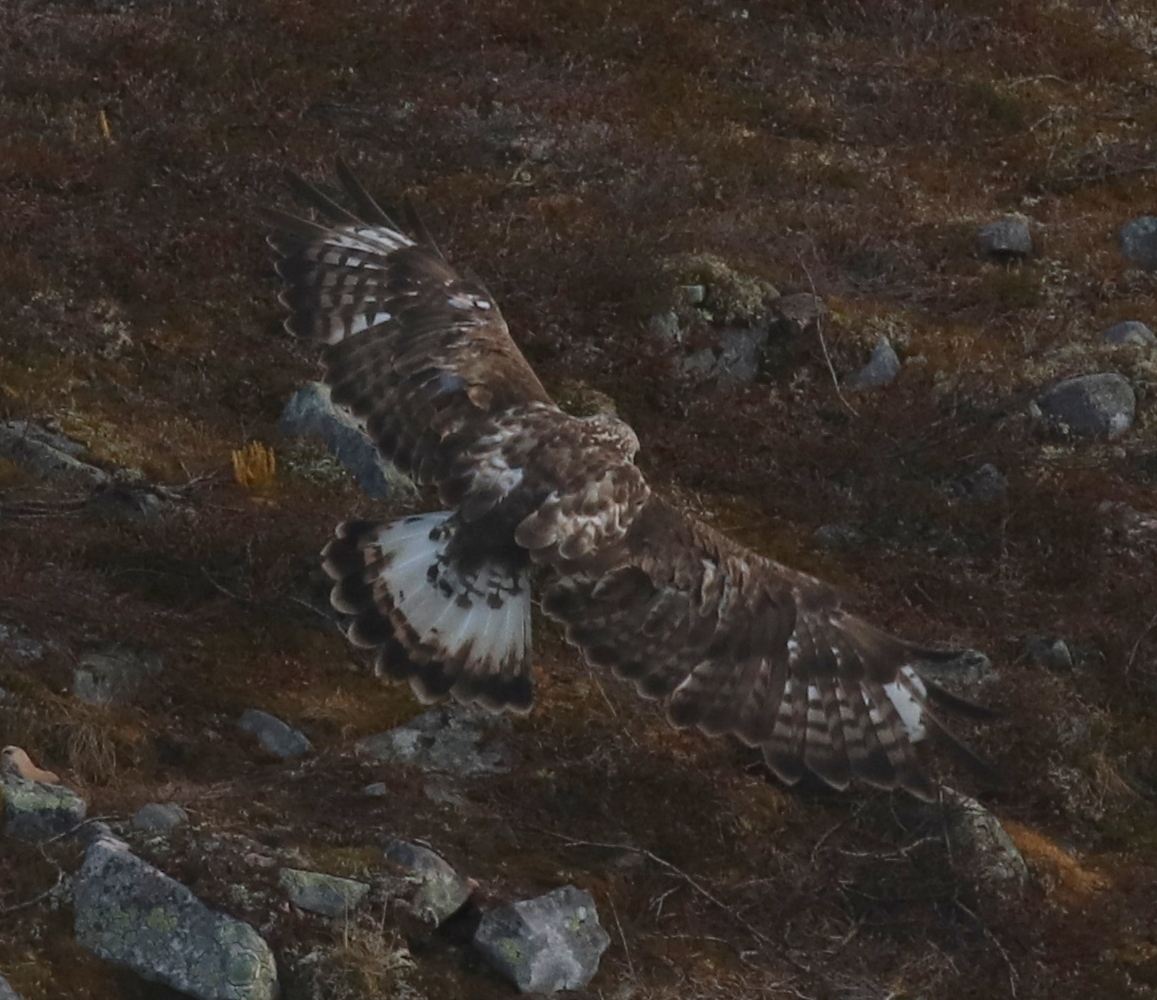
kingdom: Animalia
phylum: Chordata
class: Aves
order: Accipitriformes
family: Accipitridae
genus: Buteo
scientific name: Buteo lagopus
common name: Rough-legged buzzard
